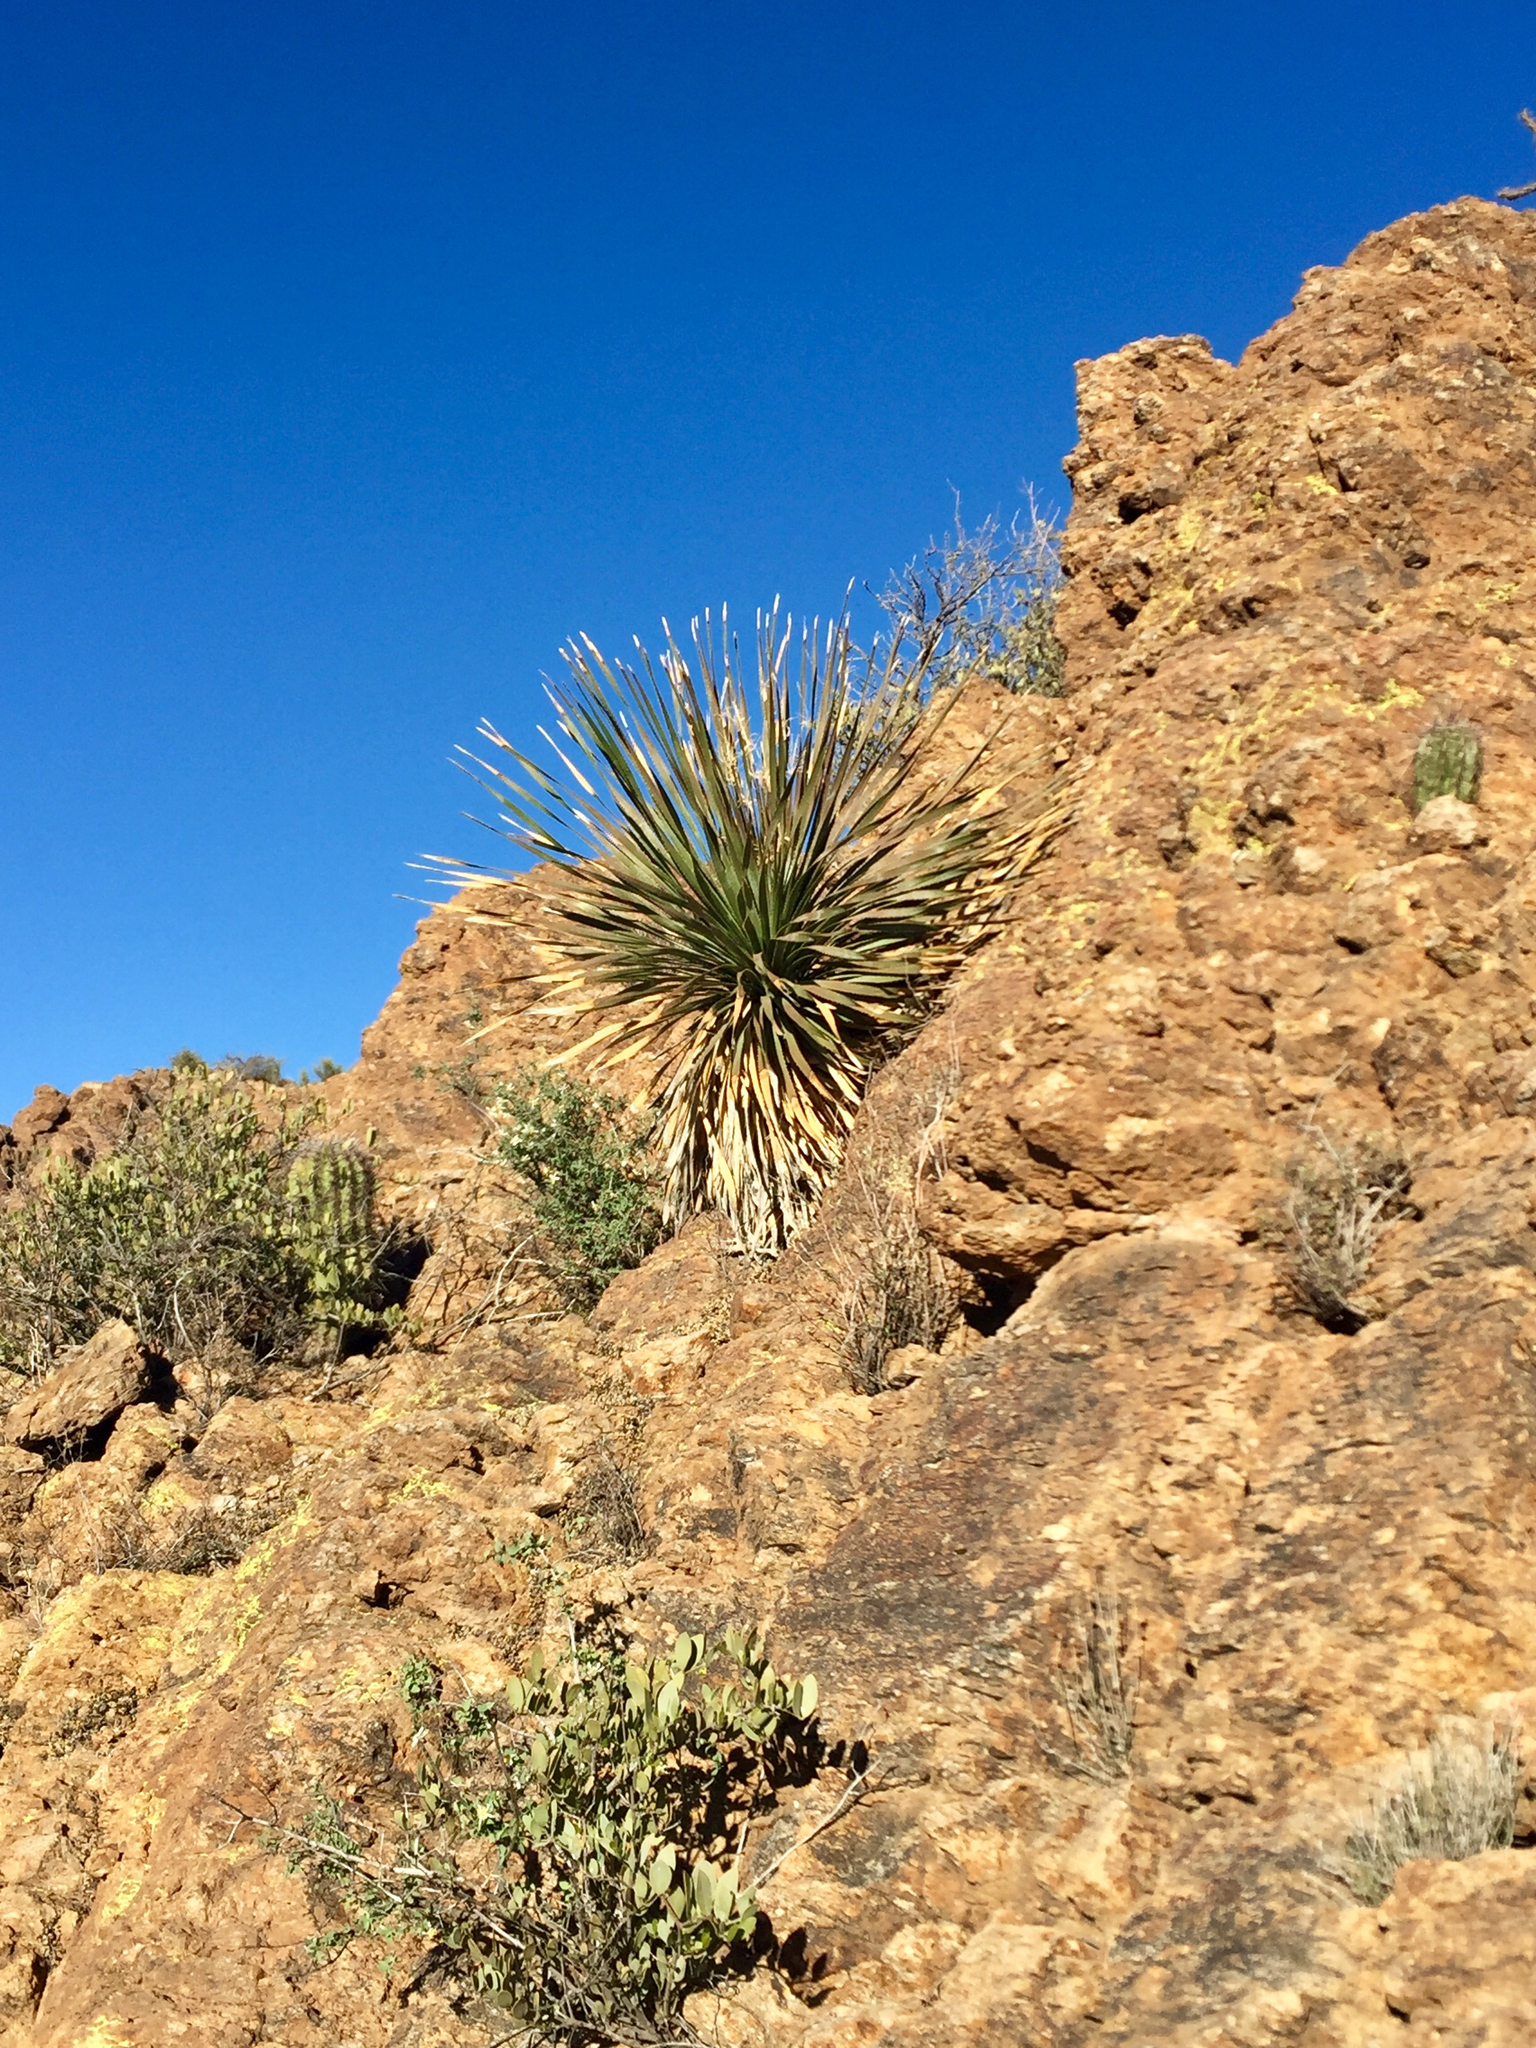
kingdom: Plantae
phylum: Tracheophyta
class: Liliopsida
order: Asparagales
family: Asparagaceae
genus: Dasylirion
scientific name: Dasylirion wheeleri
